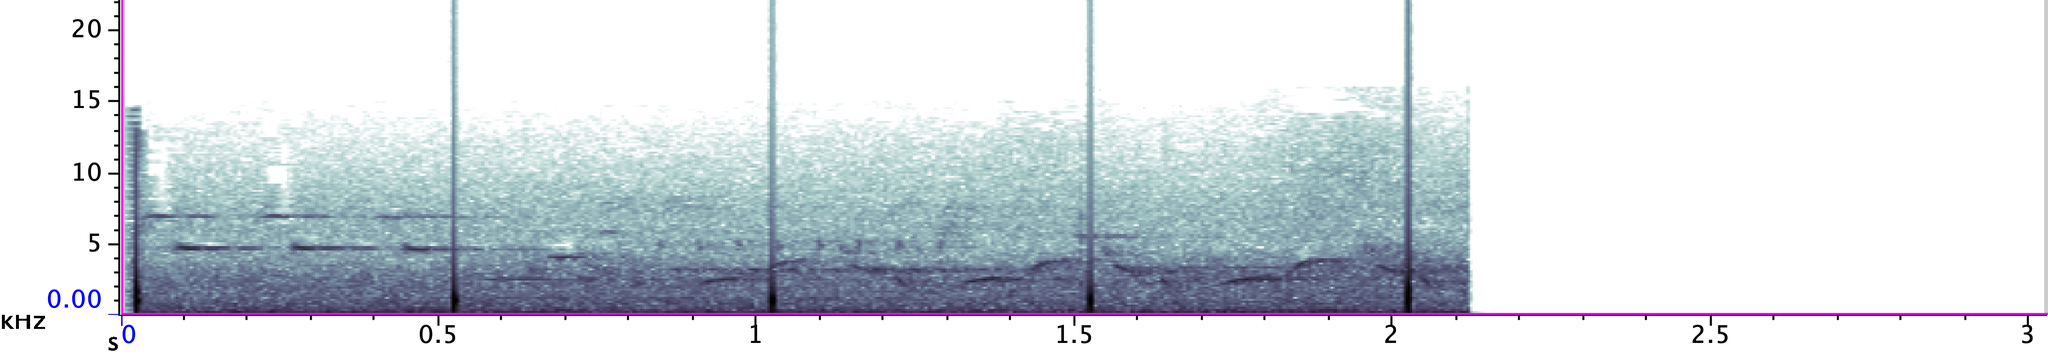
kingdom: Animalia
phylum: Chordata
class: Aves
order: Passeriformes
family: Troglodytidae
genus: Thryothorus
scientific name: Thryothorus ludovicianus
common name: Carolina wren
